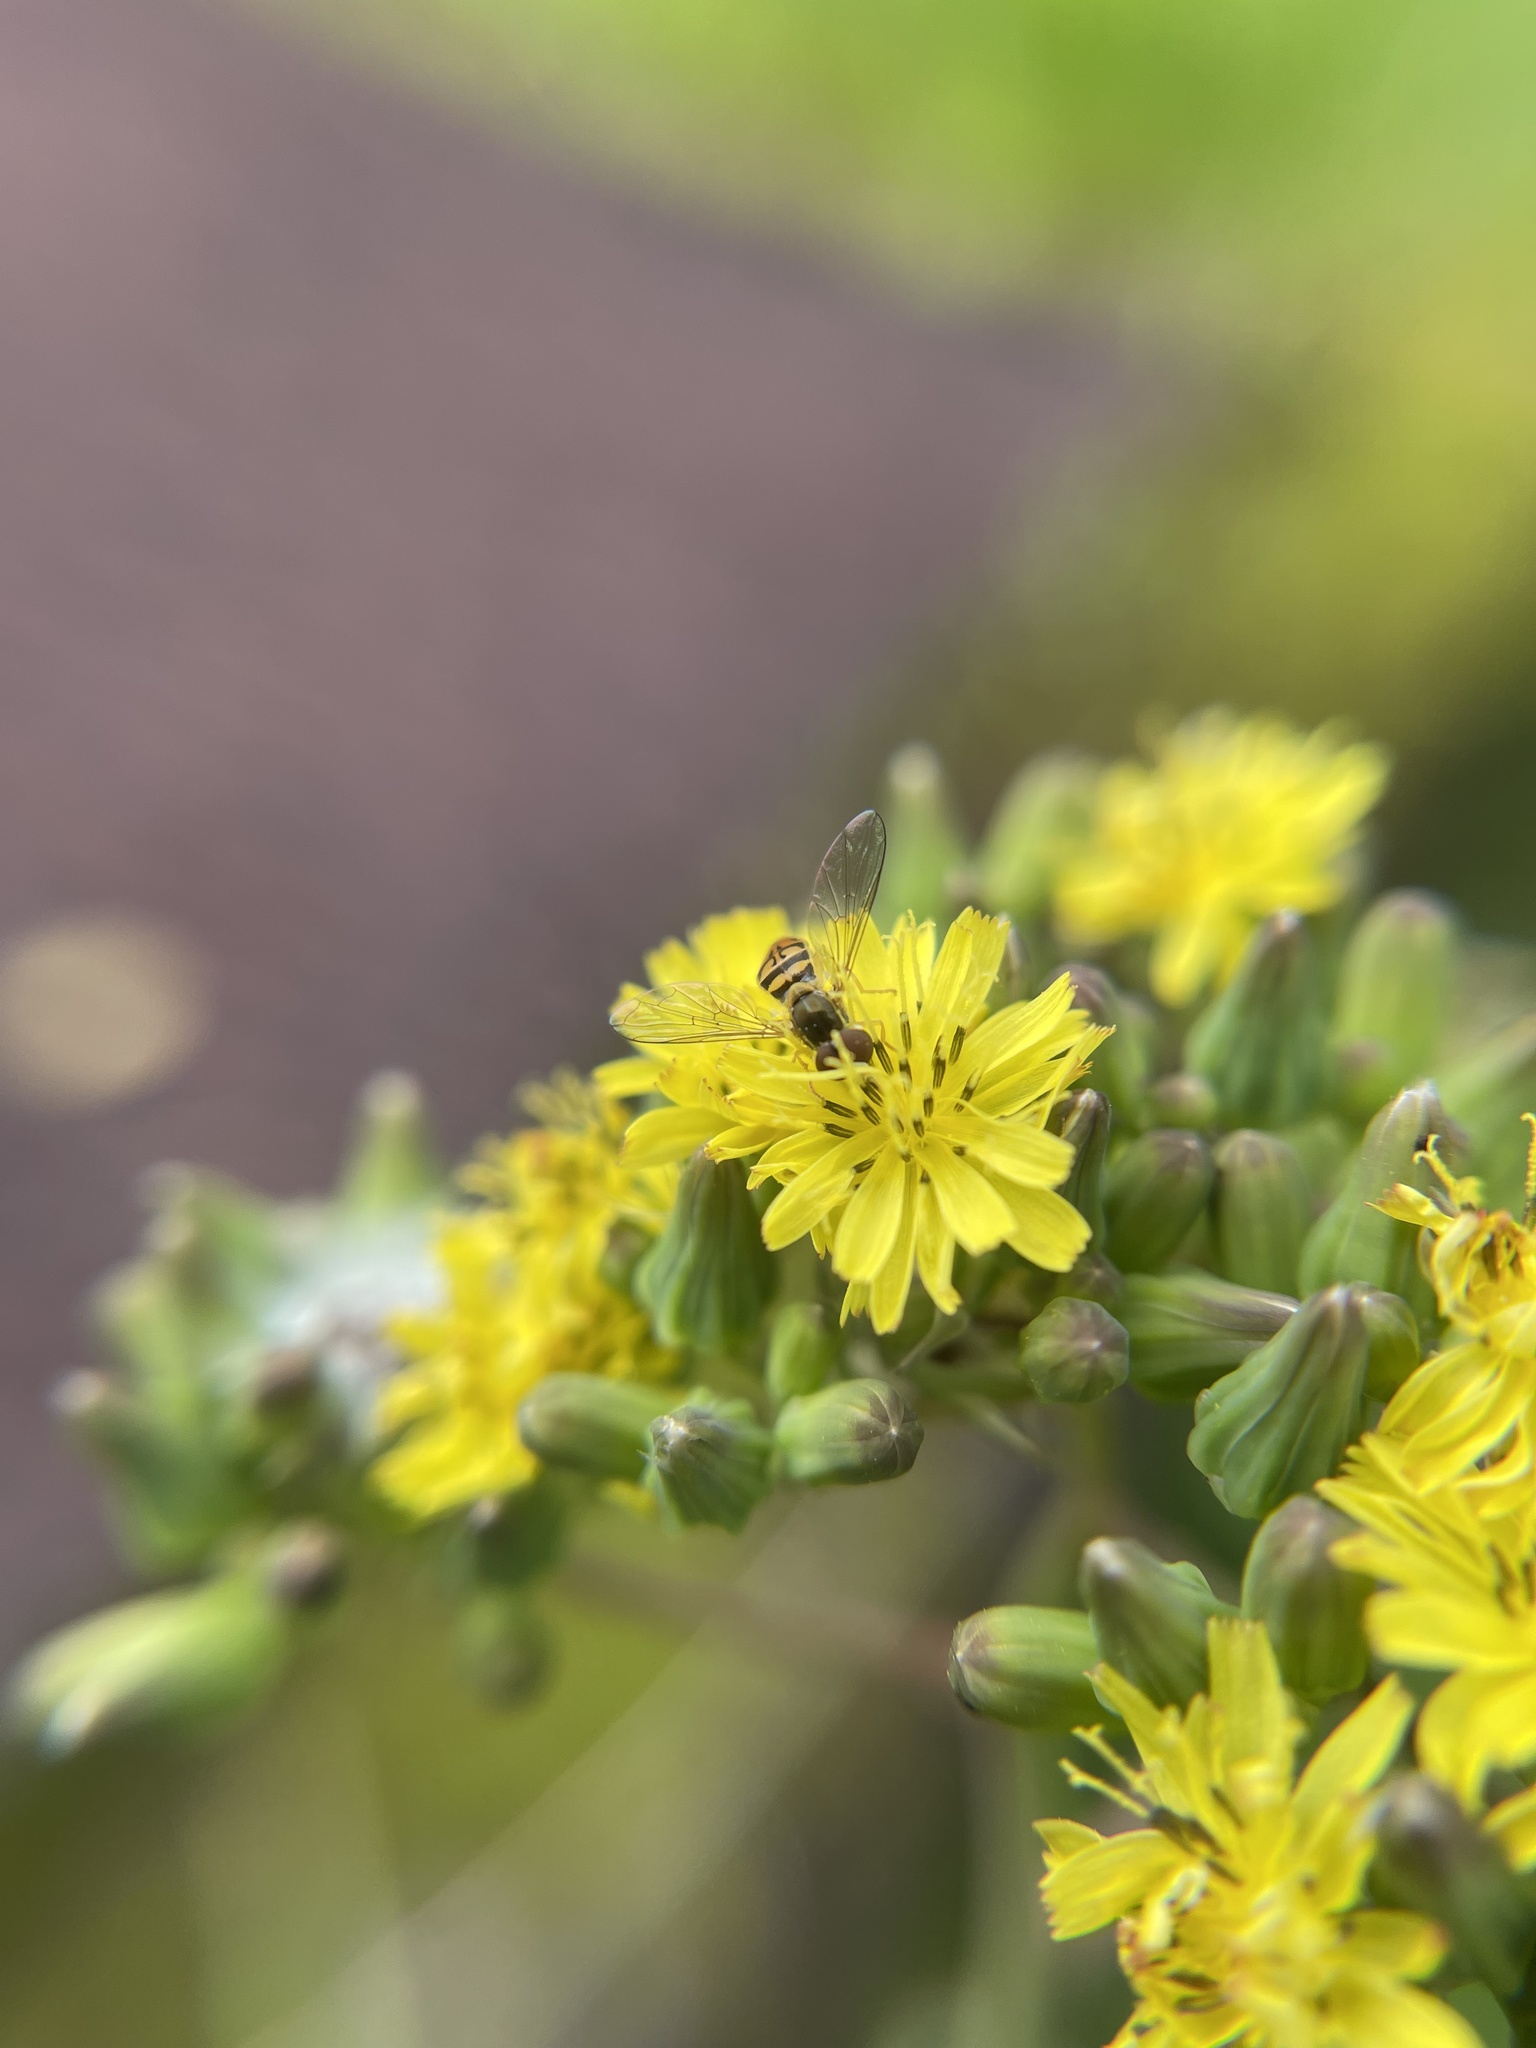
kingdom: Plantae
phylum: Tracheophyta
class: Magnoliopsida
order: Asterales
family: Asteraceae
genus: Youngia
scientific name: Youngia japonica
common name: Oriental false hawksbeard
